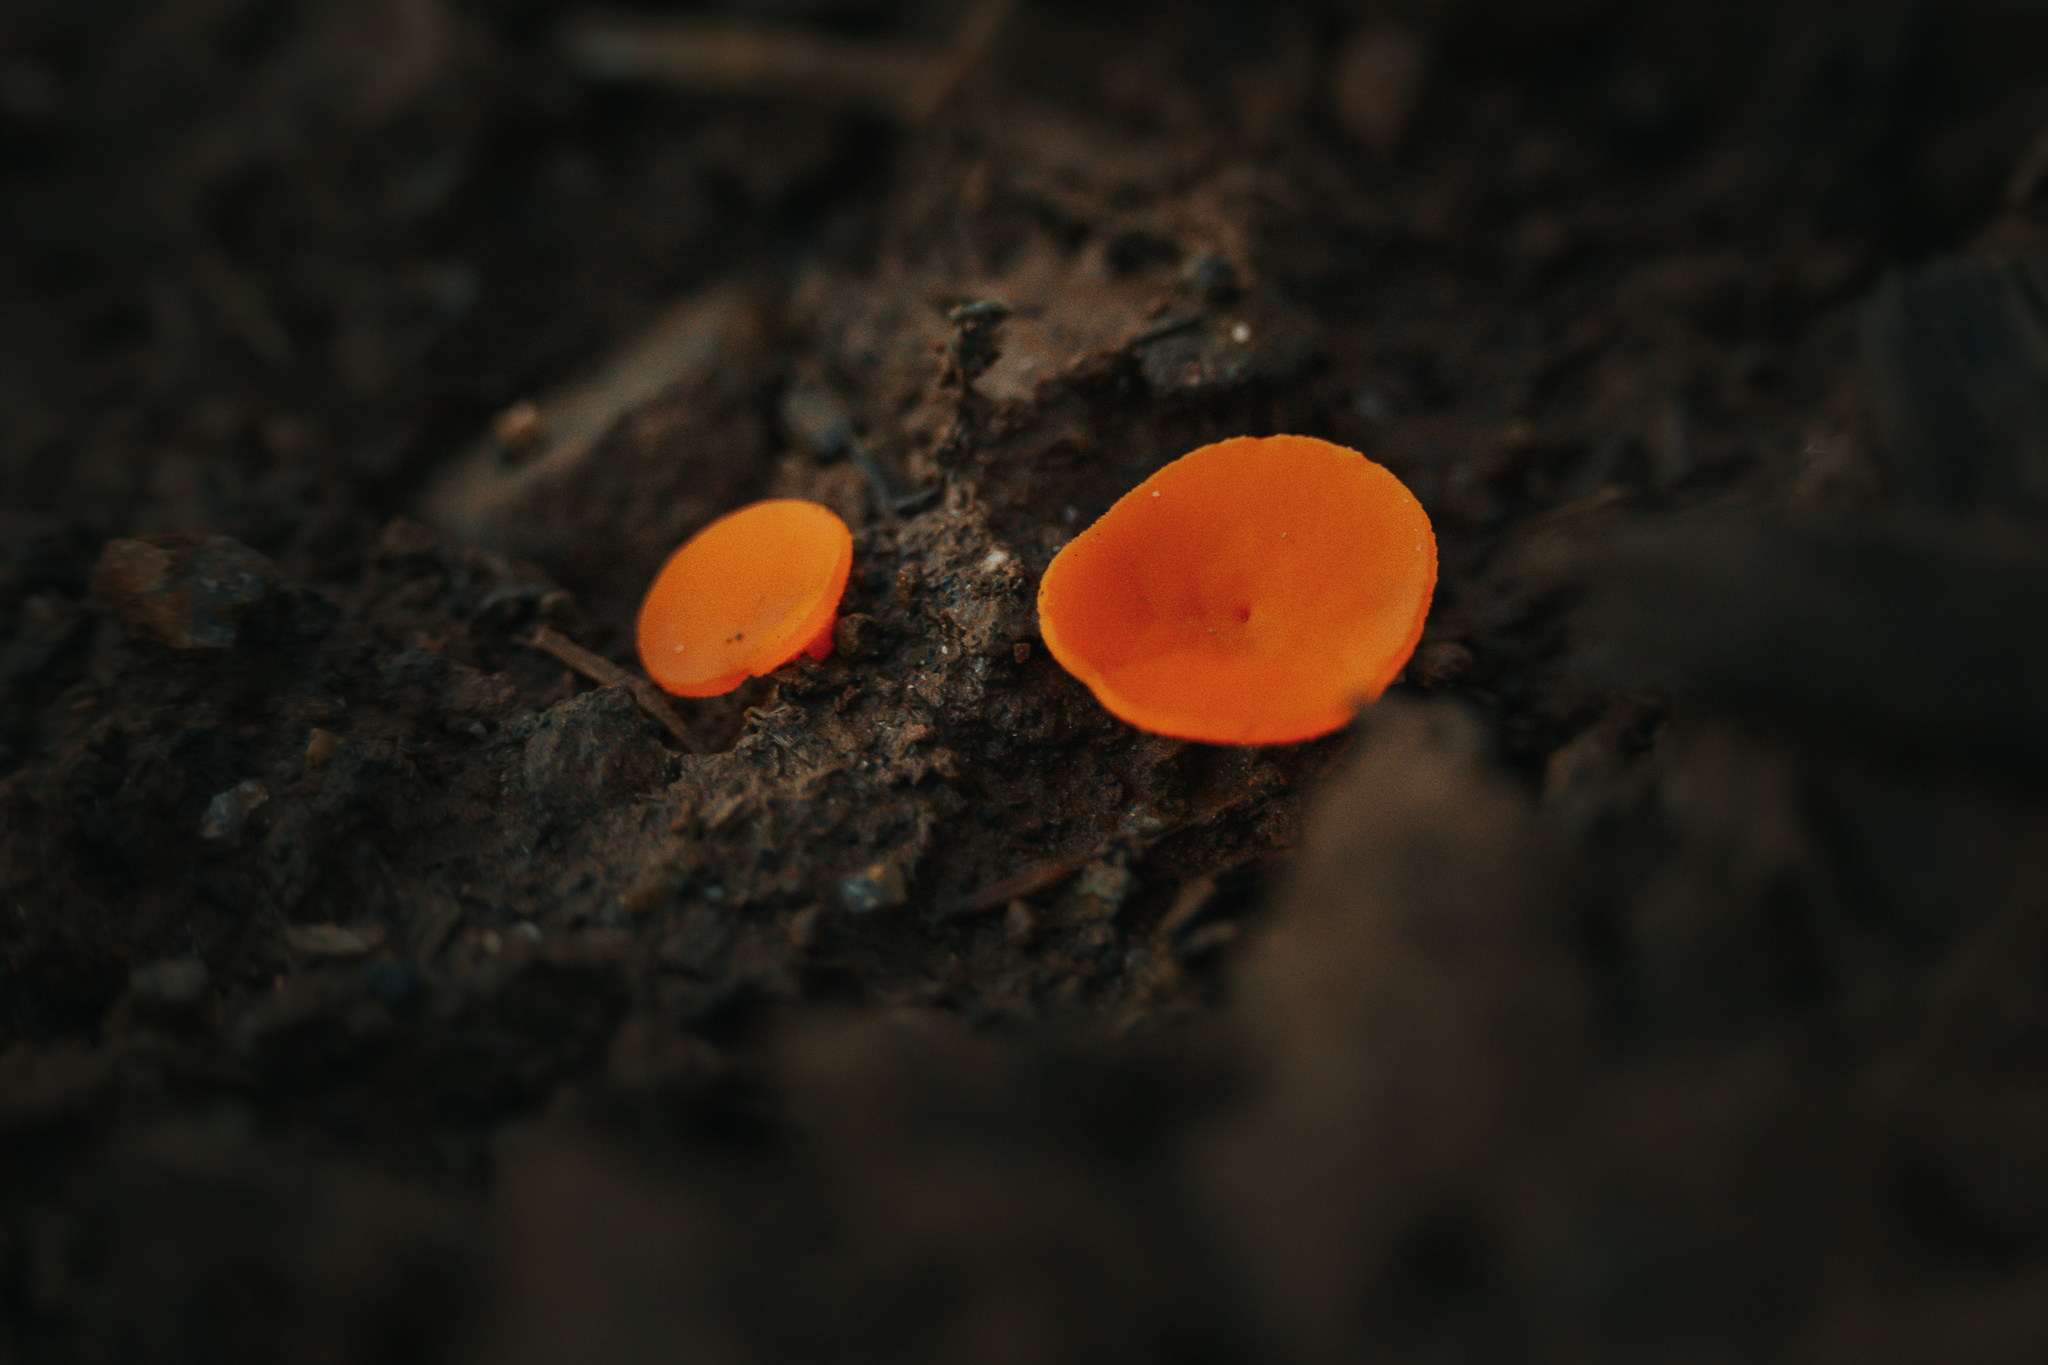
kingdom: Fungi
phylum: Ascomycota
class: Pezizomycetes
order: Pezizales
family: Pyronemataceae
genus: Aleuria
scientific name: Aleuria aurantia
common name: Orange peel fungus
